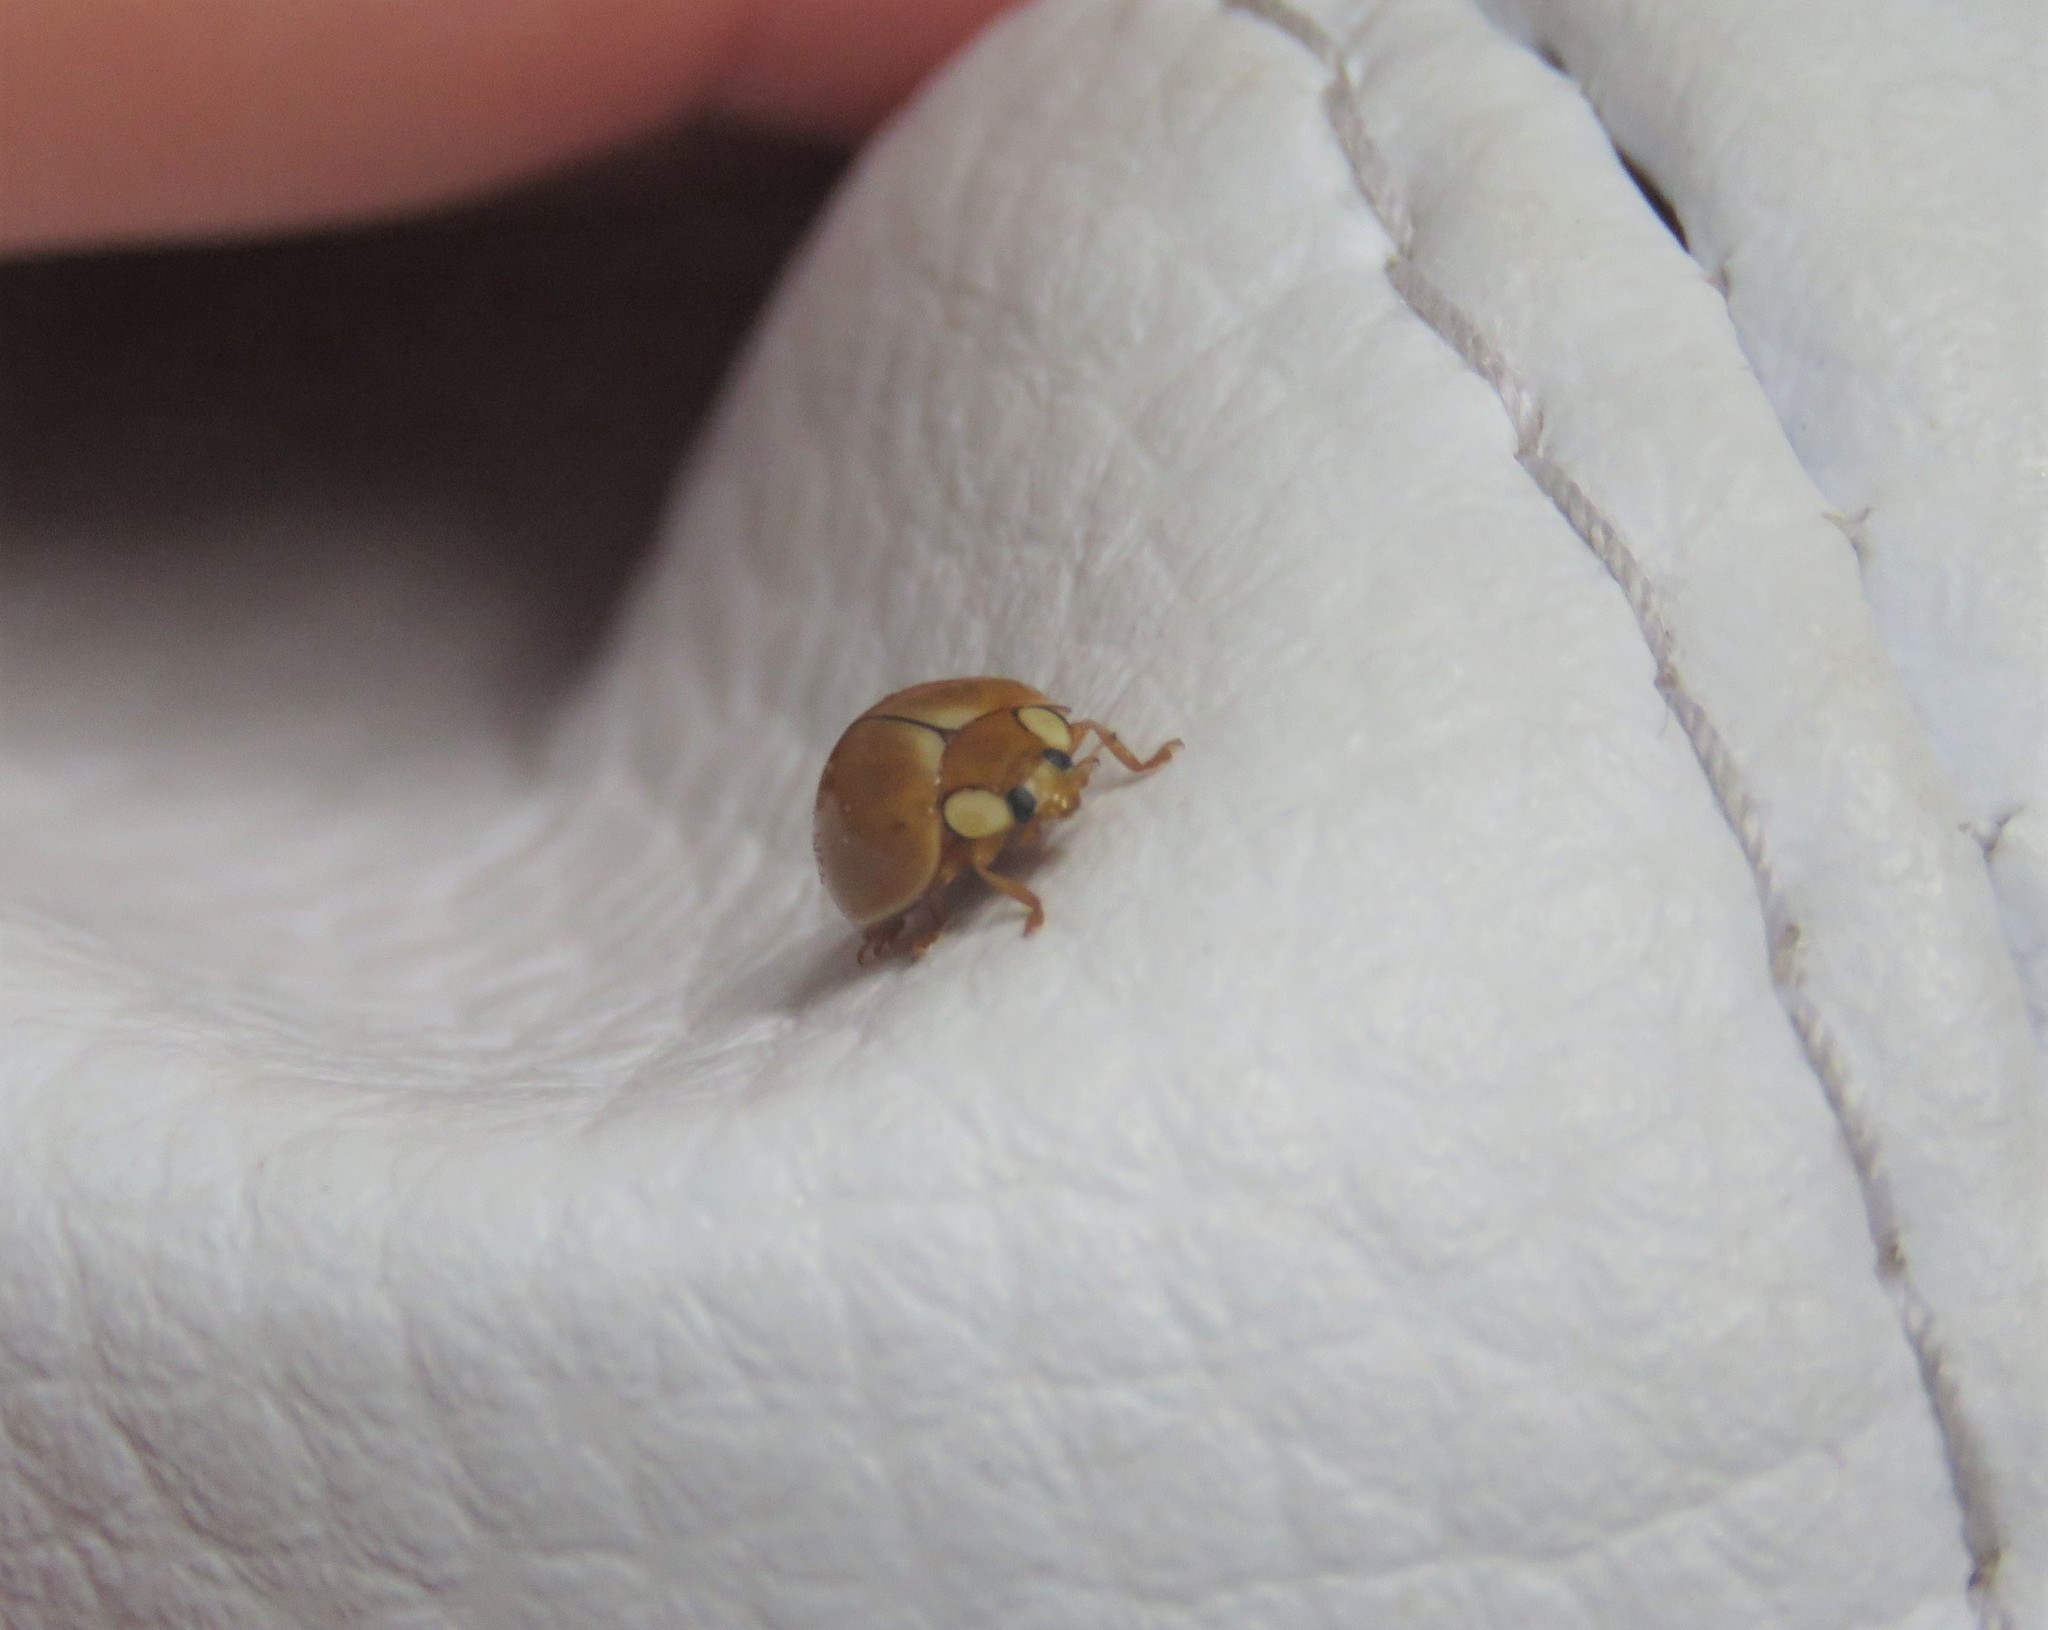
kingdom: Animalia
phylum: Arthropoda
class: Insecta
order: Coleoptera
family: Coccinellidae
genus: Paraneda
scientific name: Paraneda pallidula
